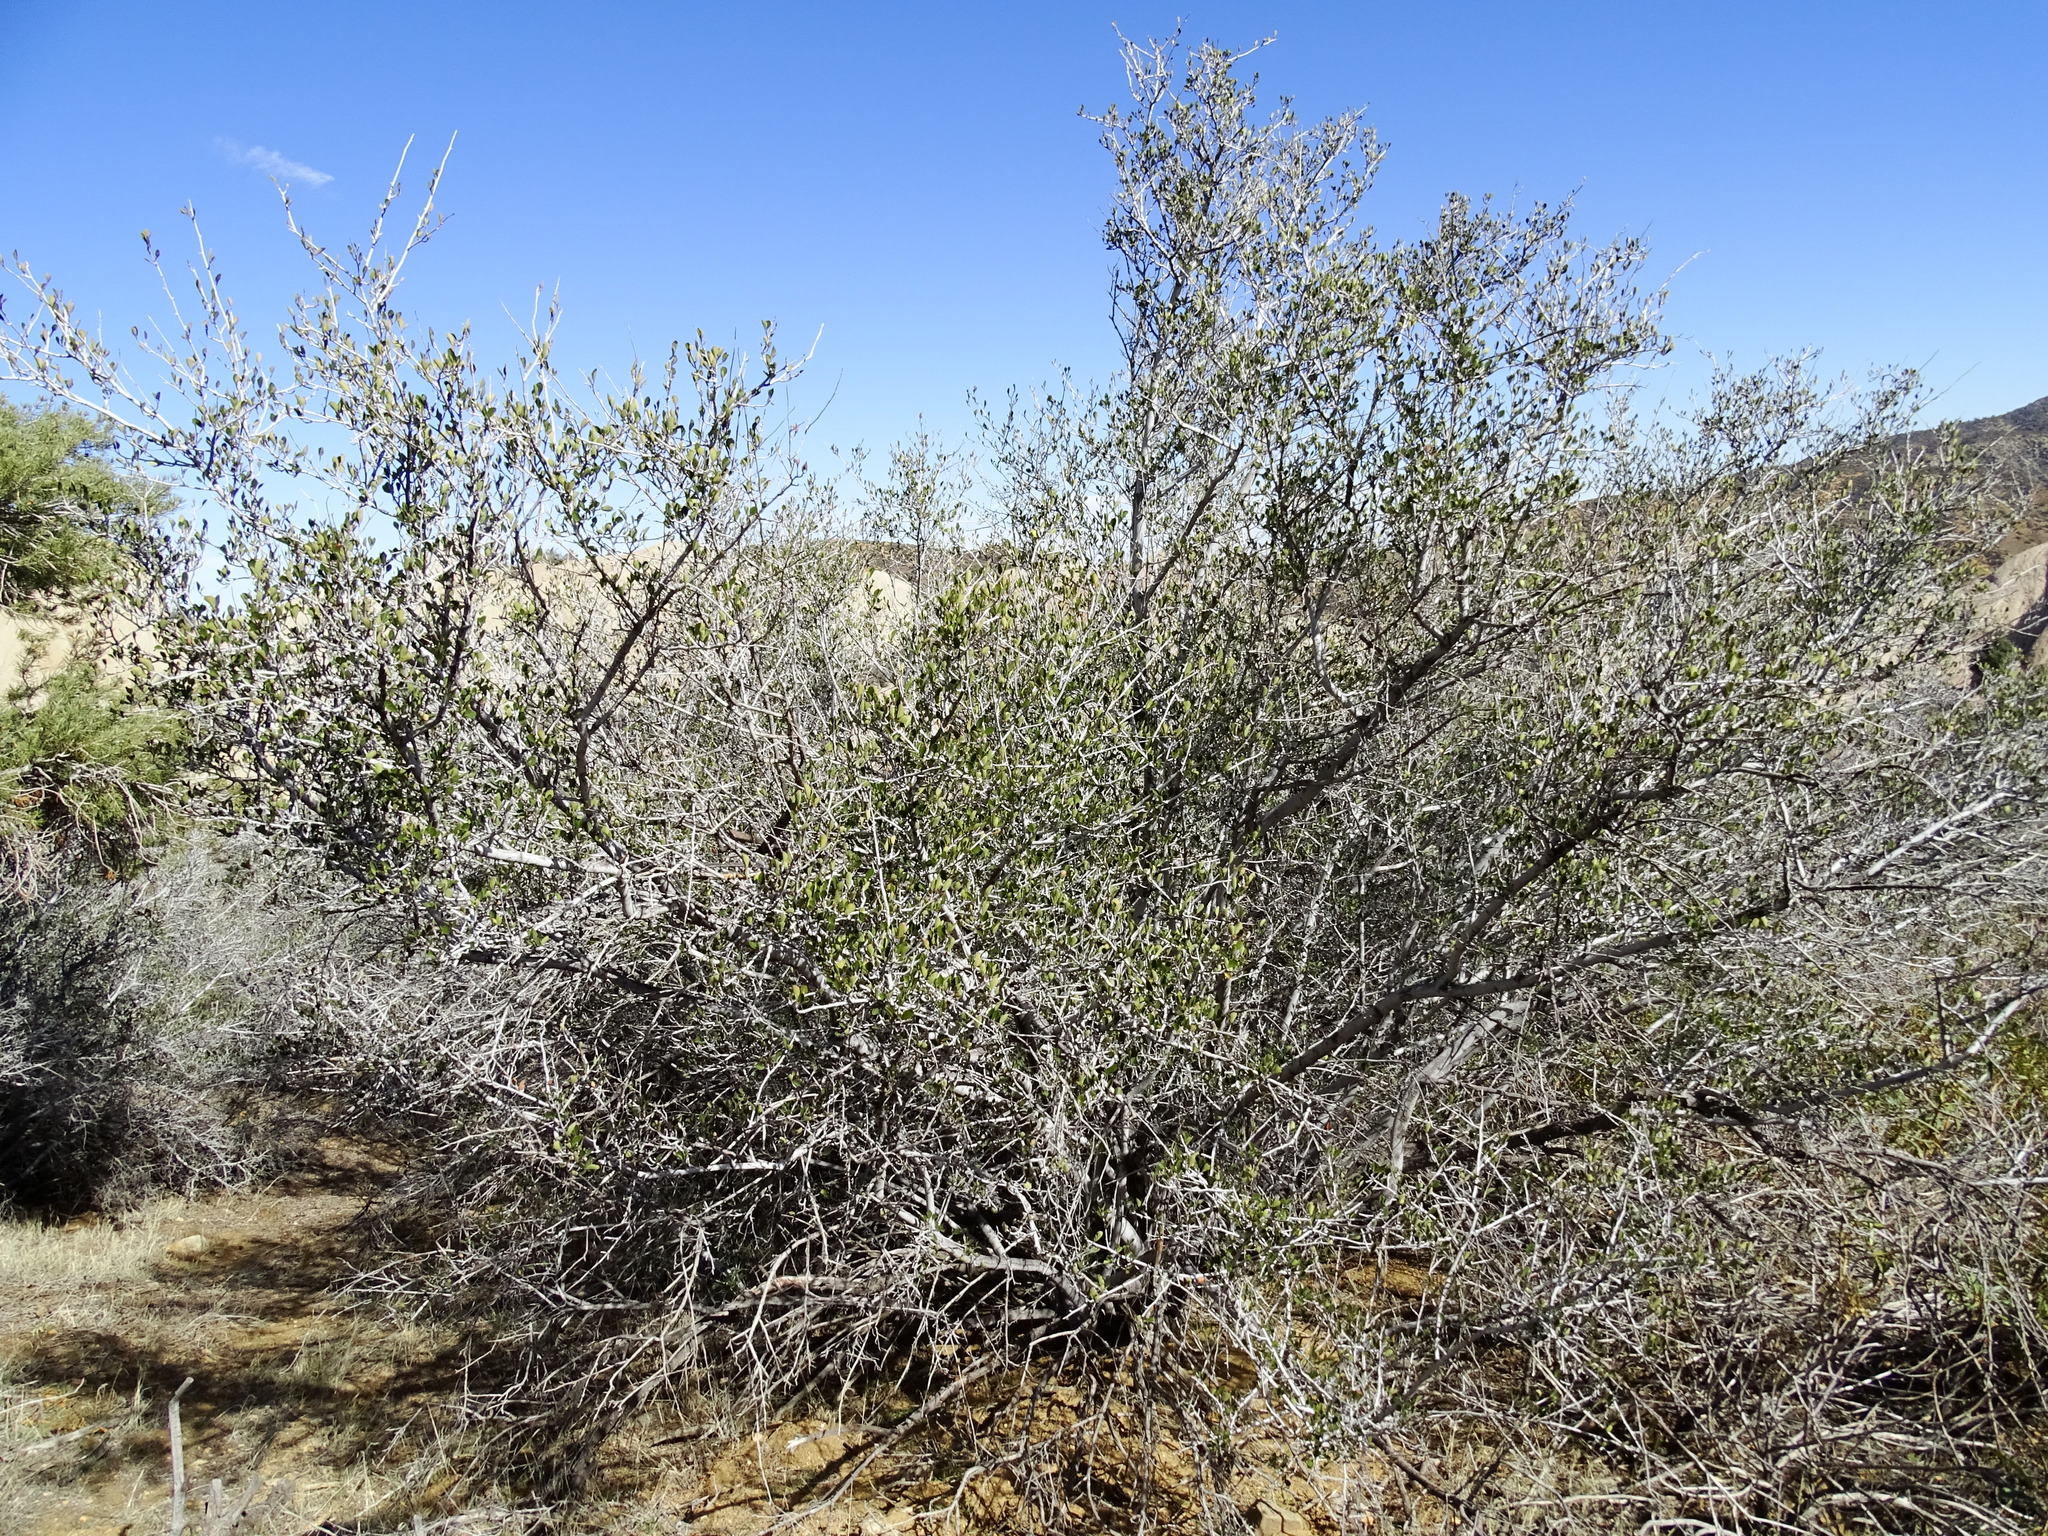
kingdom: Plantae
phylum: Tracheophyta
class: Magnoliopsida
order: Rosales
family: Rosaceae
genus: Cercocarpus
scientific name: Cercocarpus betuloides
